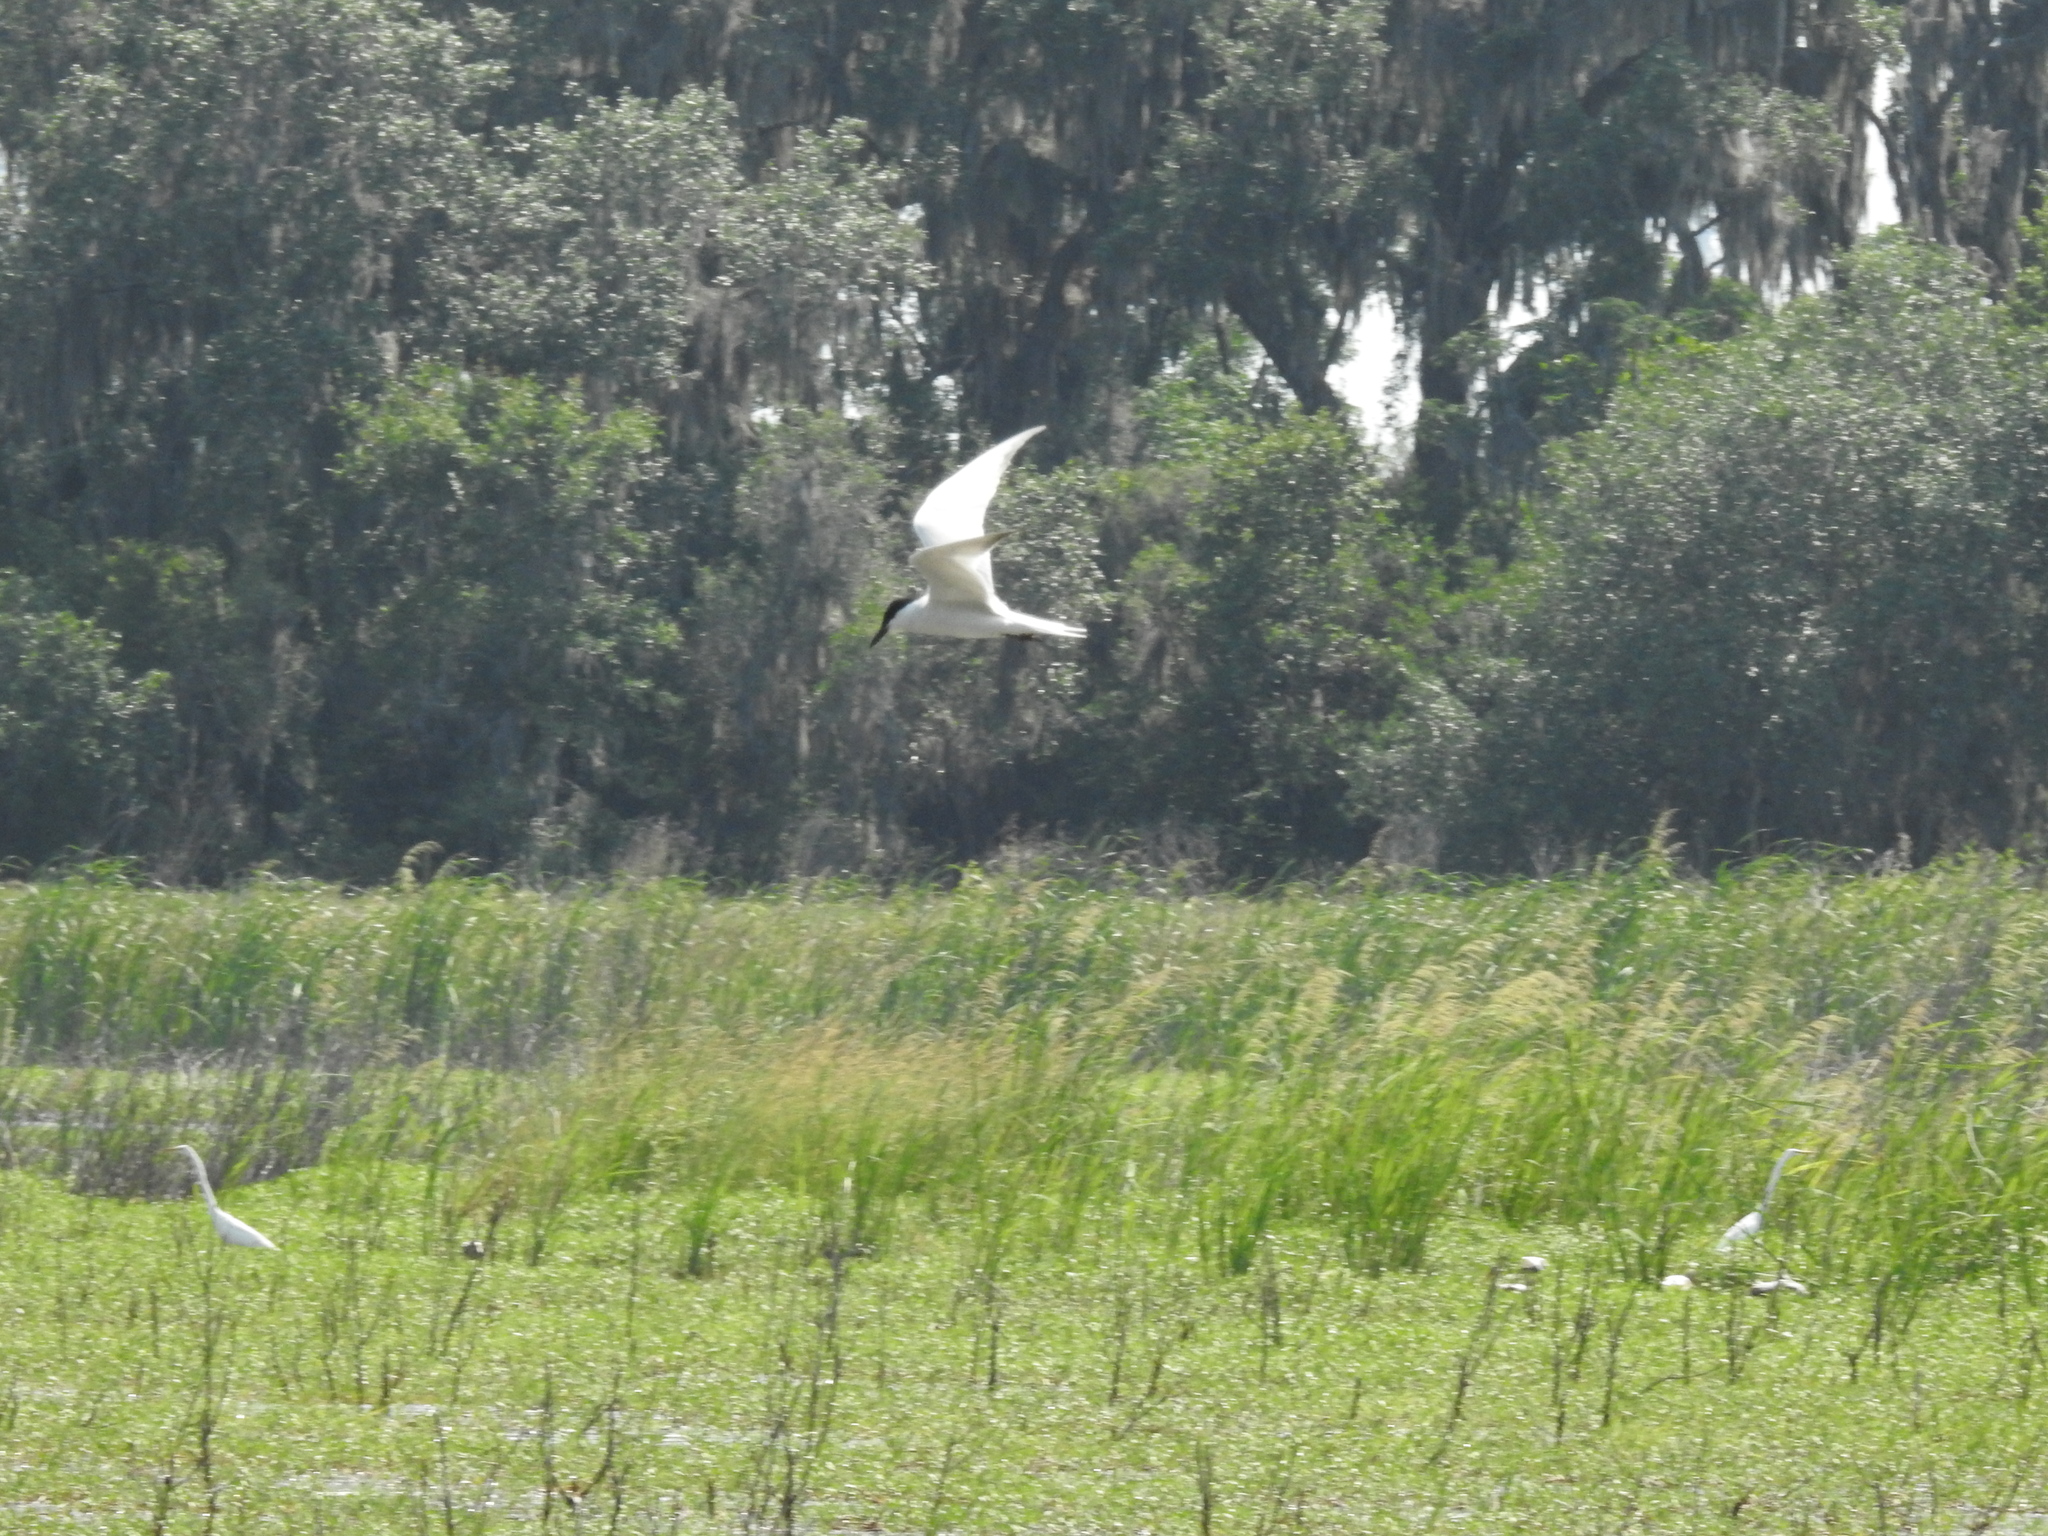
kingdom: Animalia
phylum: Chordata
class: Aves
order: Charadriiformes
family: Laridae
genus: Gelochelidon
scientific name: Gelochelidon nilotica
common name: Gull-billed tern
